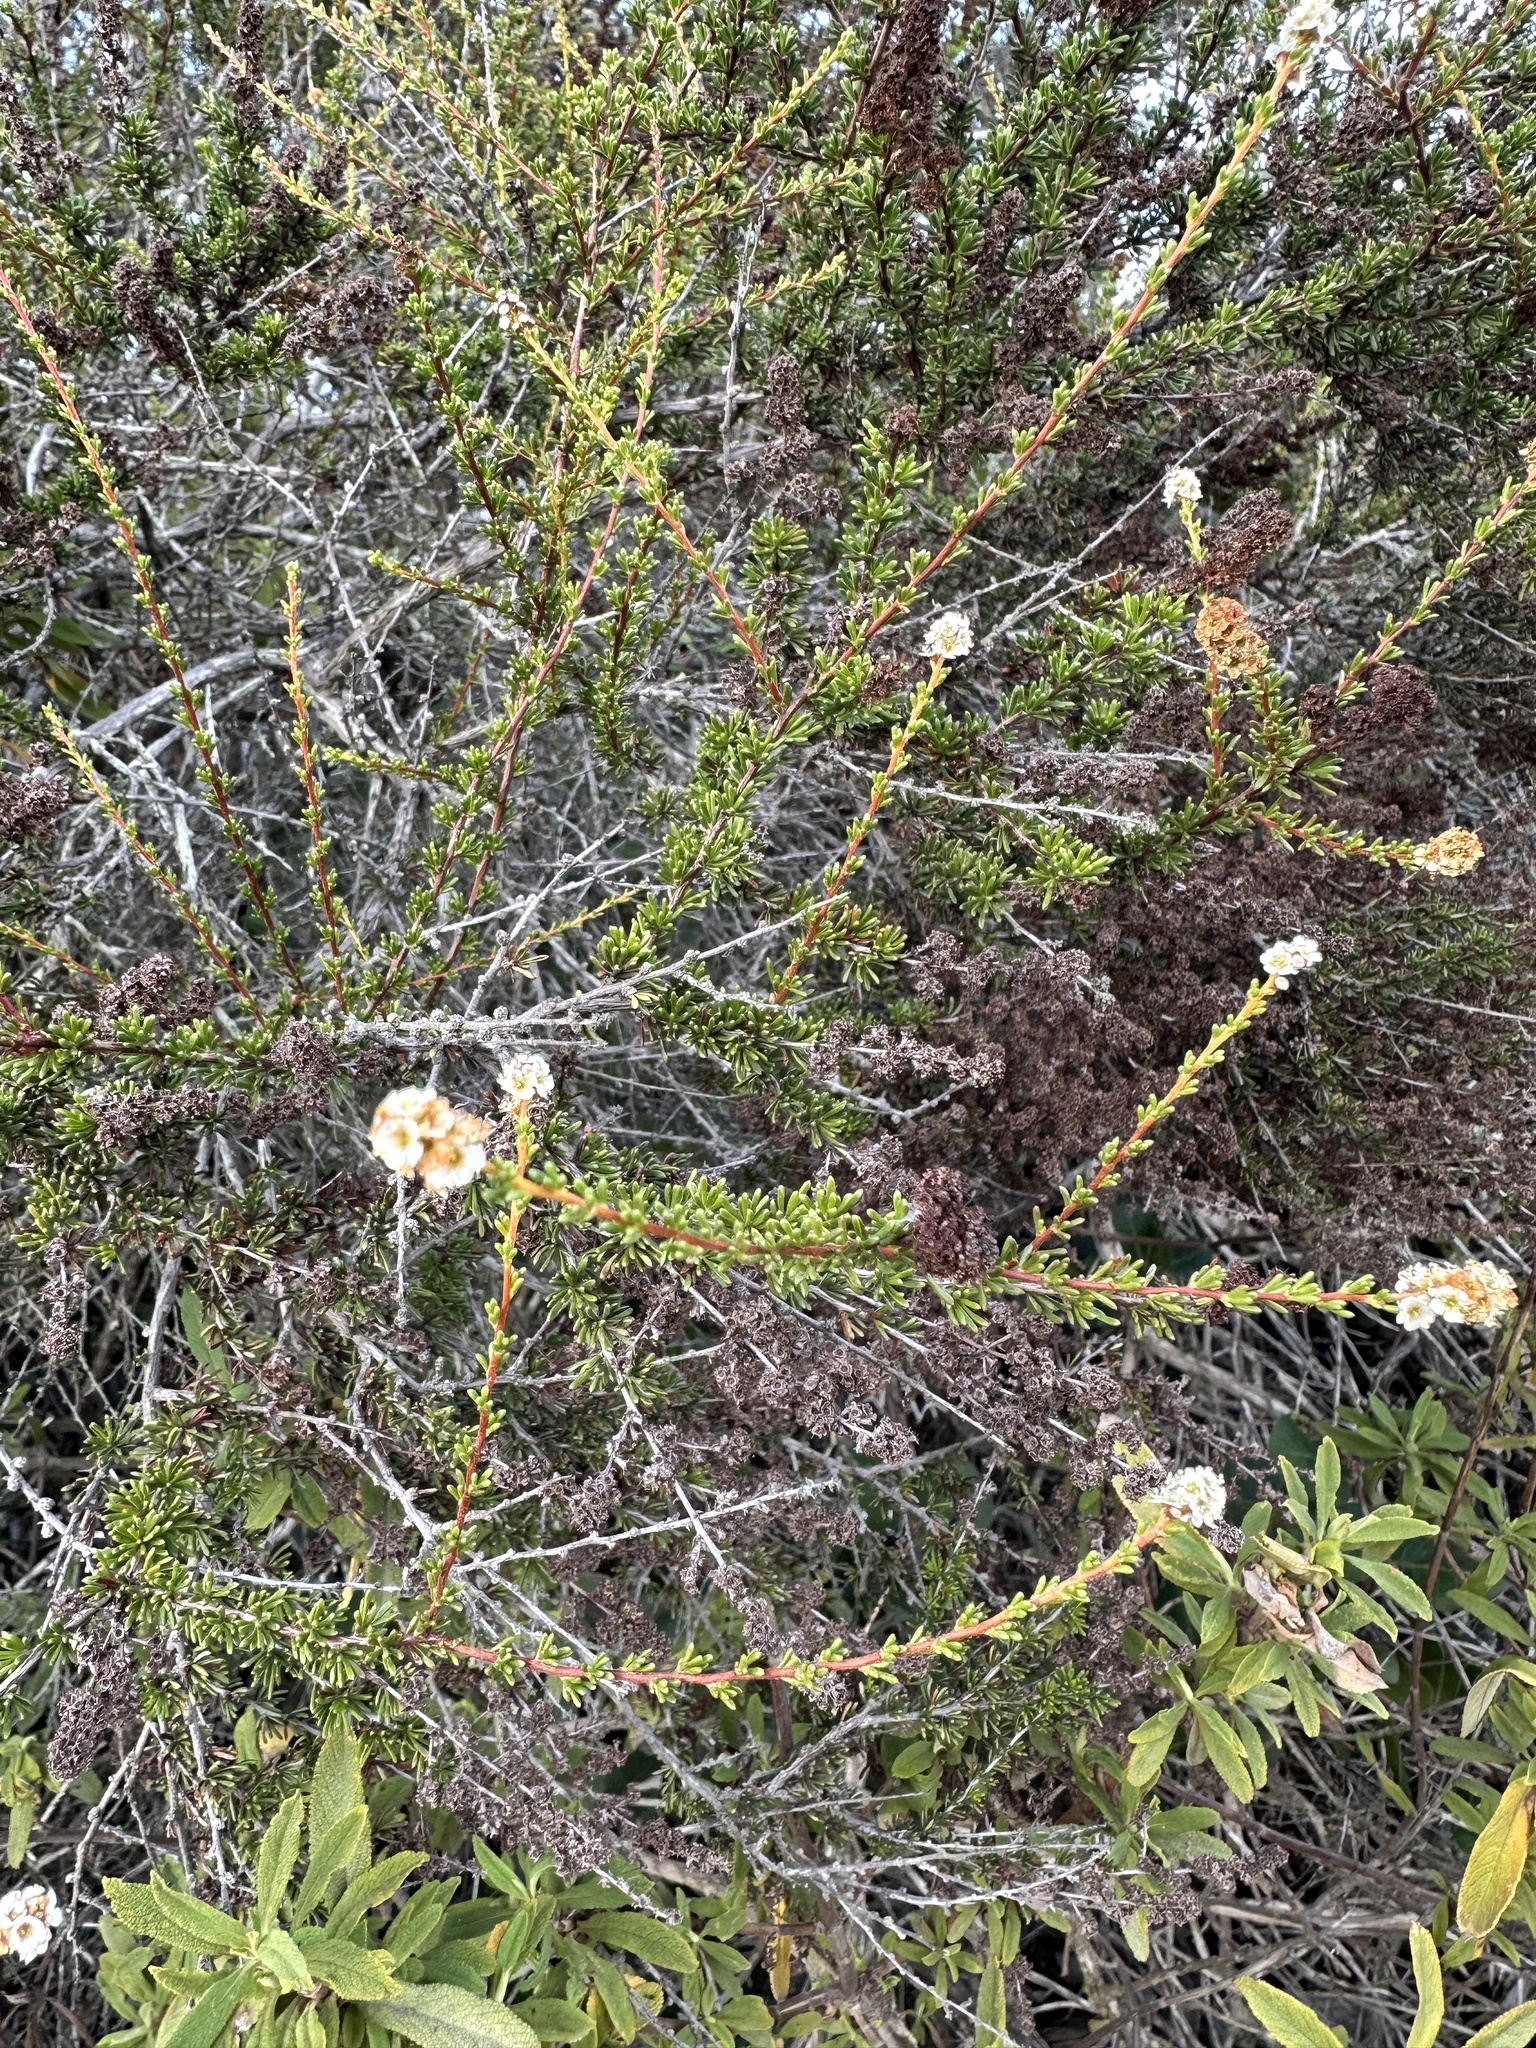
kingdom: Plantae
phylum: Tracheophyta
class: Magnoliopsida
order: Rosales
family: Rosaceae
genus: Adenostoma
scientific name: Adenostoma fasciculatum
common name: Chamise
